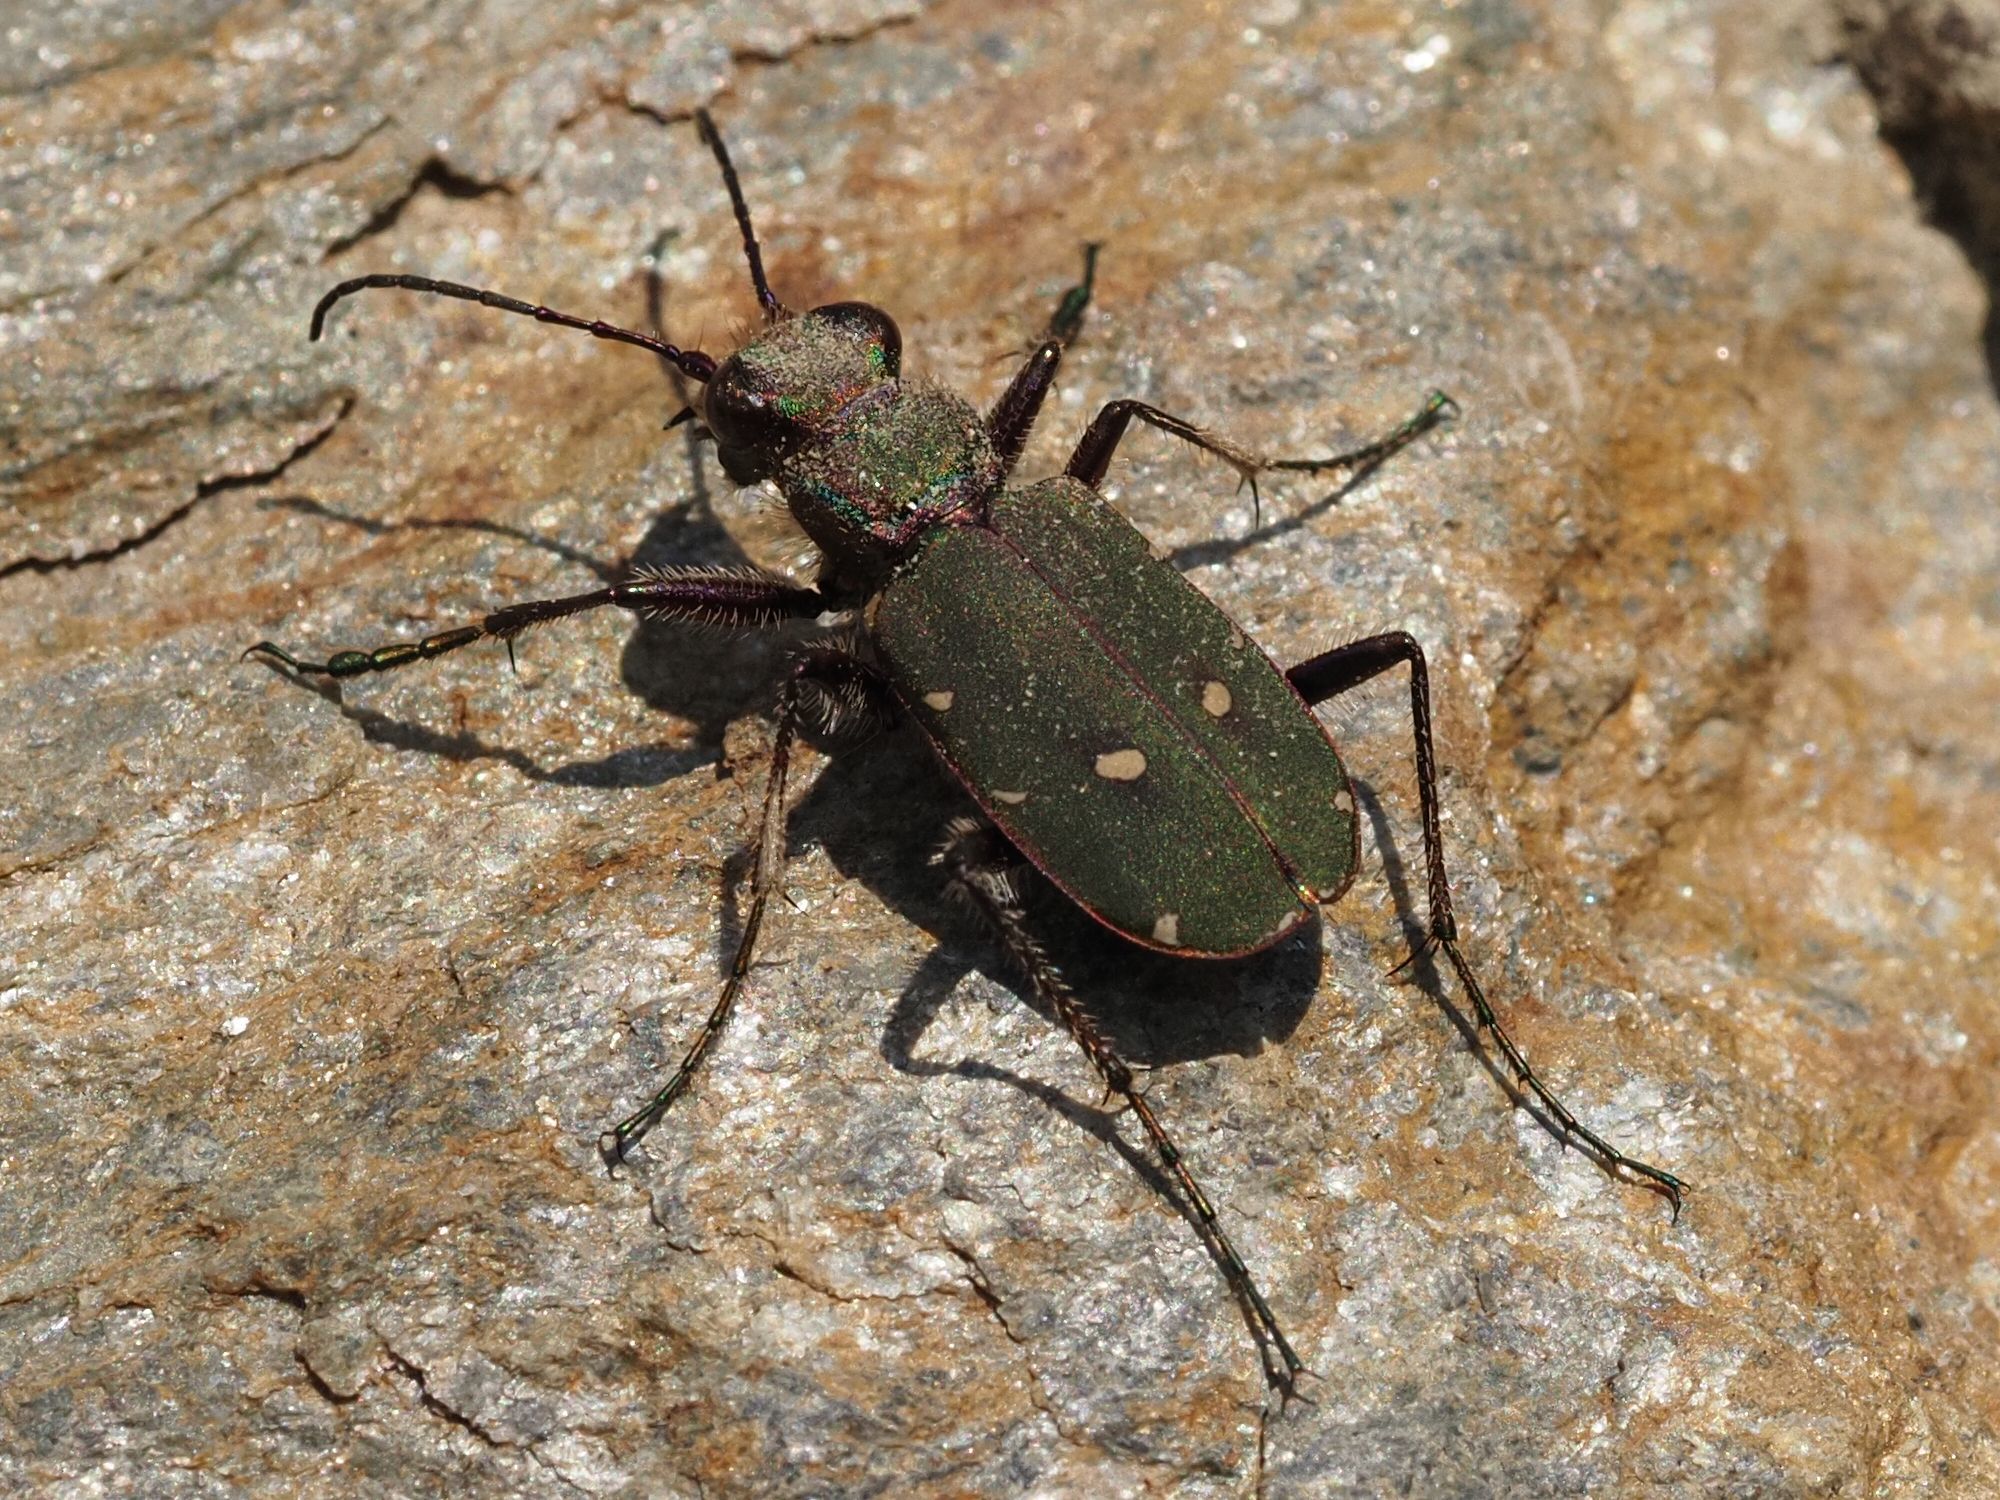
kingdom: Animalia
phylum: Arthropoda
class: Insecta
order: Coleoptera
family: Carabidae
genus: Cicindela
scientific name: Cicindela campestris
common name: Common tiger beetle
